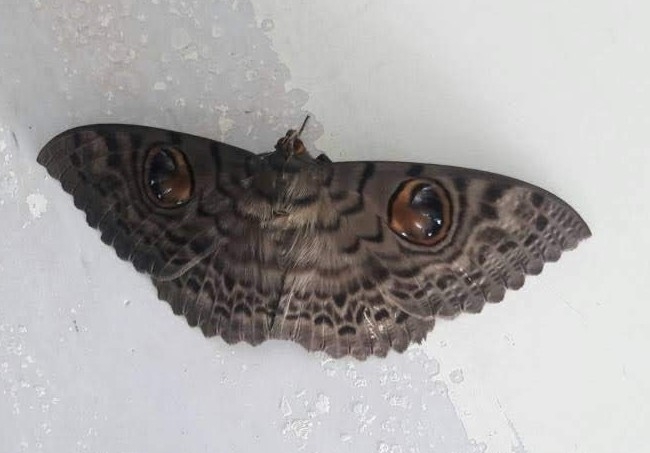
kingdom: Animalia
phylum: Arthropoda
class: Insecta
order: Lepidoptera
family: Erebidae
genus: Erebus
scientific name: Erebus macrops
